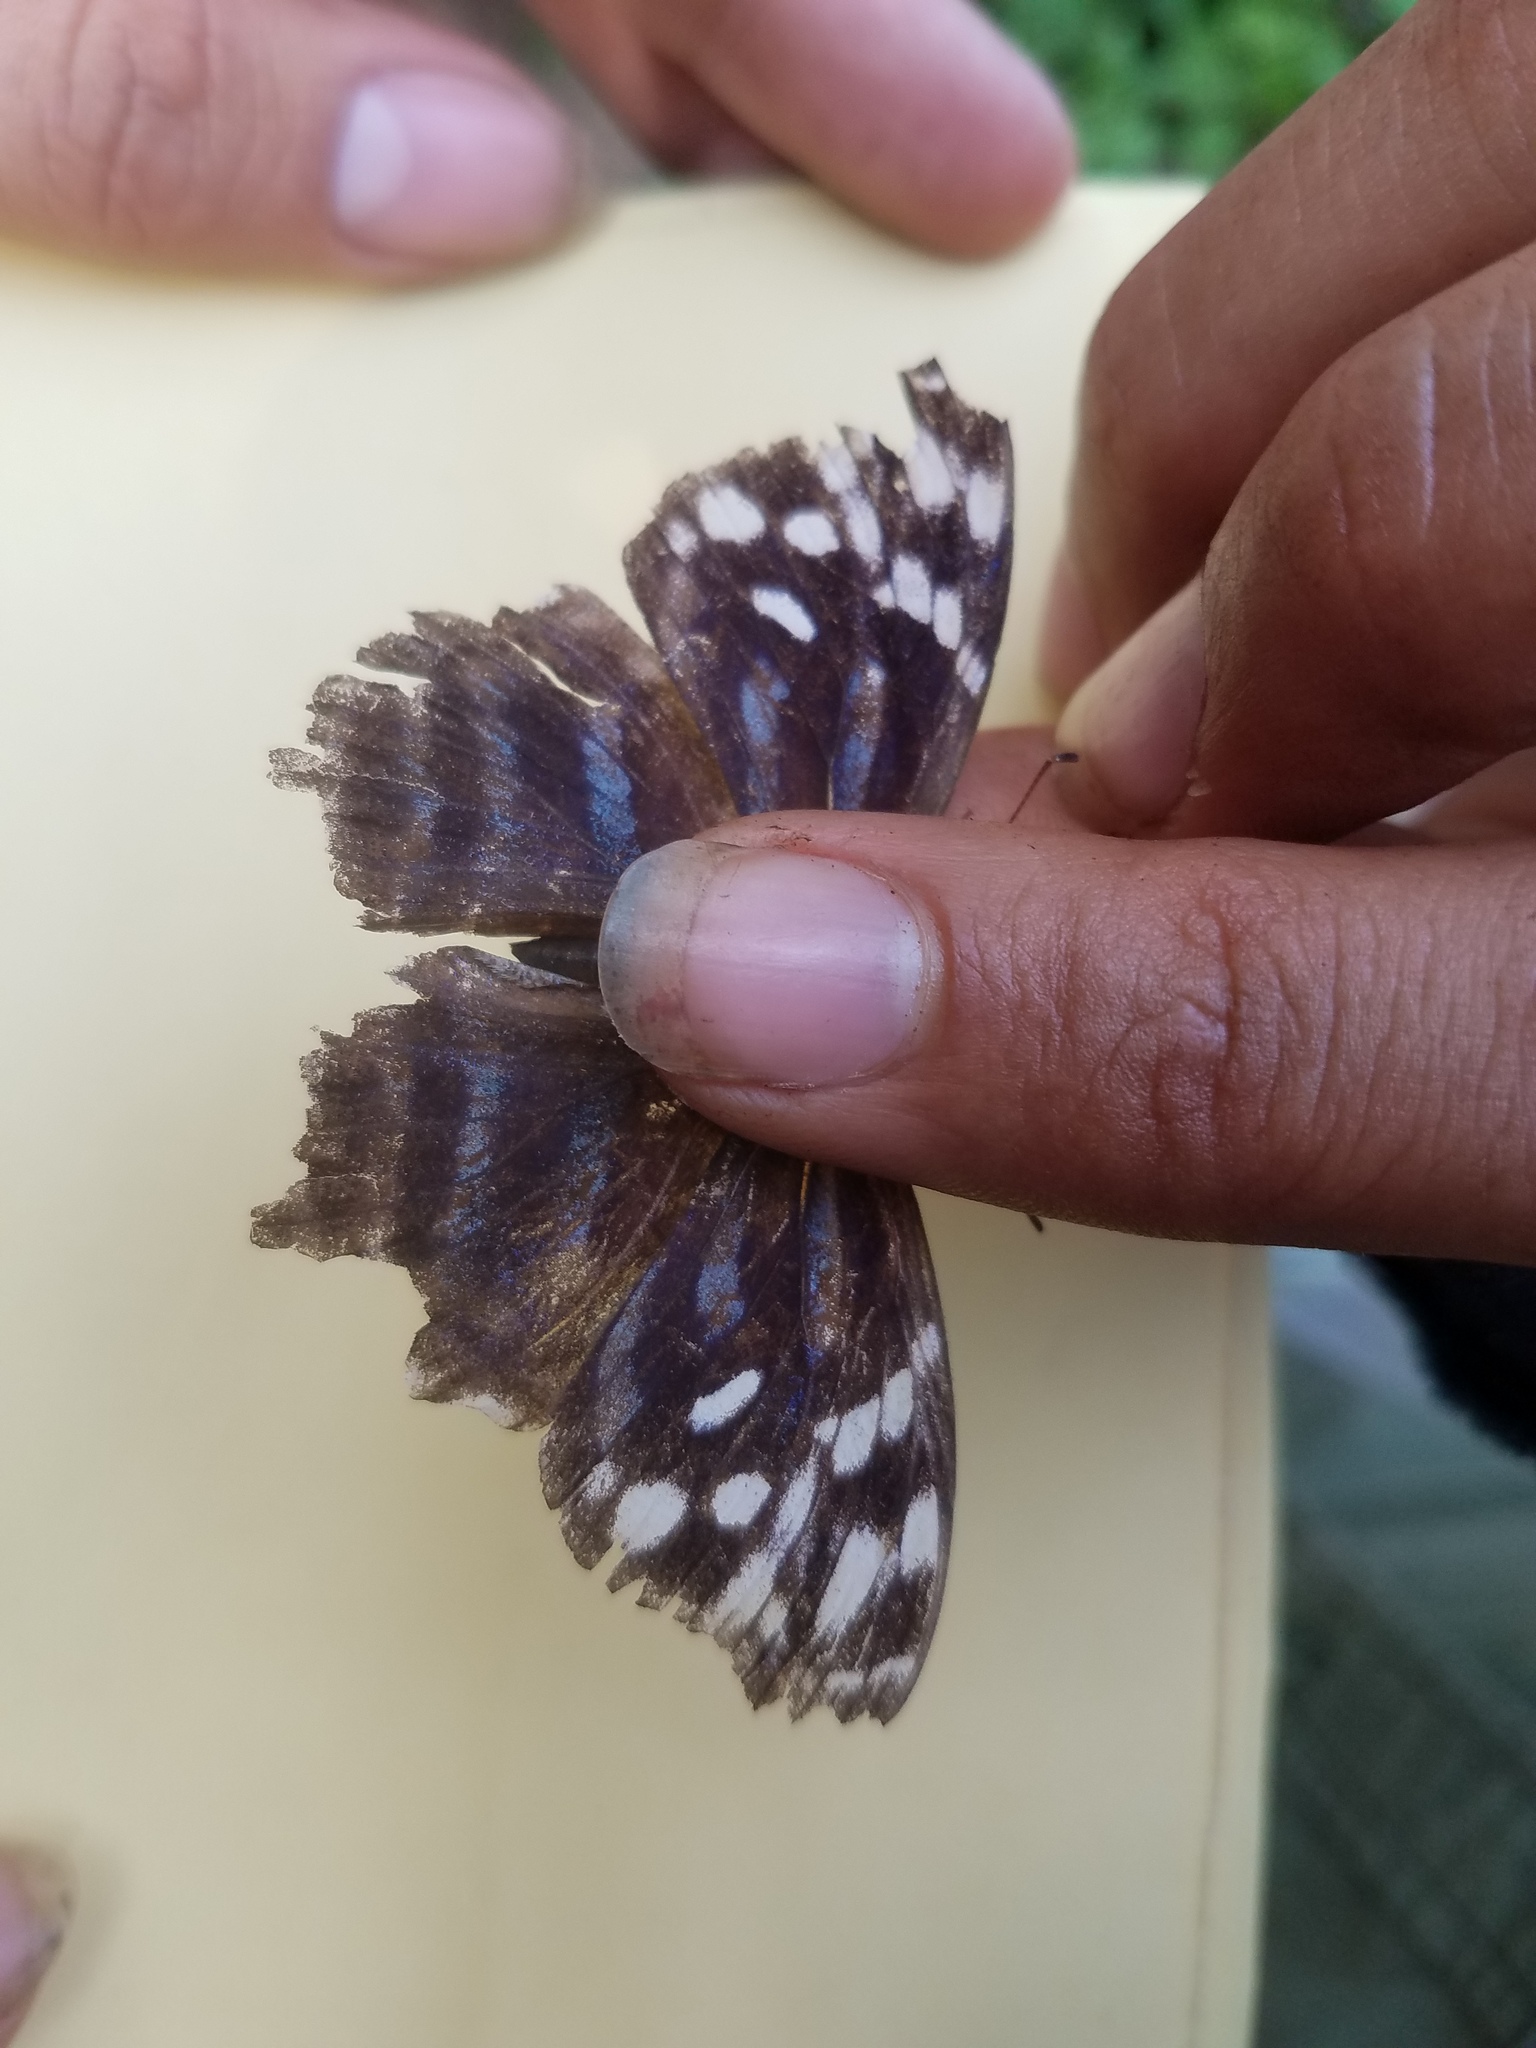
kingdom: Animalia
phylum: Arthropoda
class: Insecta
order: Lepidoptera
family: Nymphalidae
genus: Myscelia
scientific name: Myscelia ethusa
